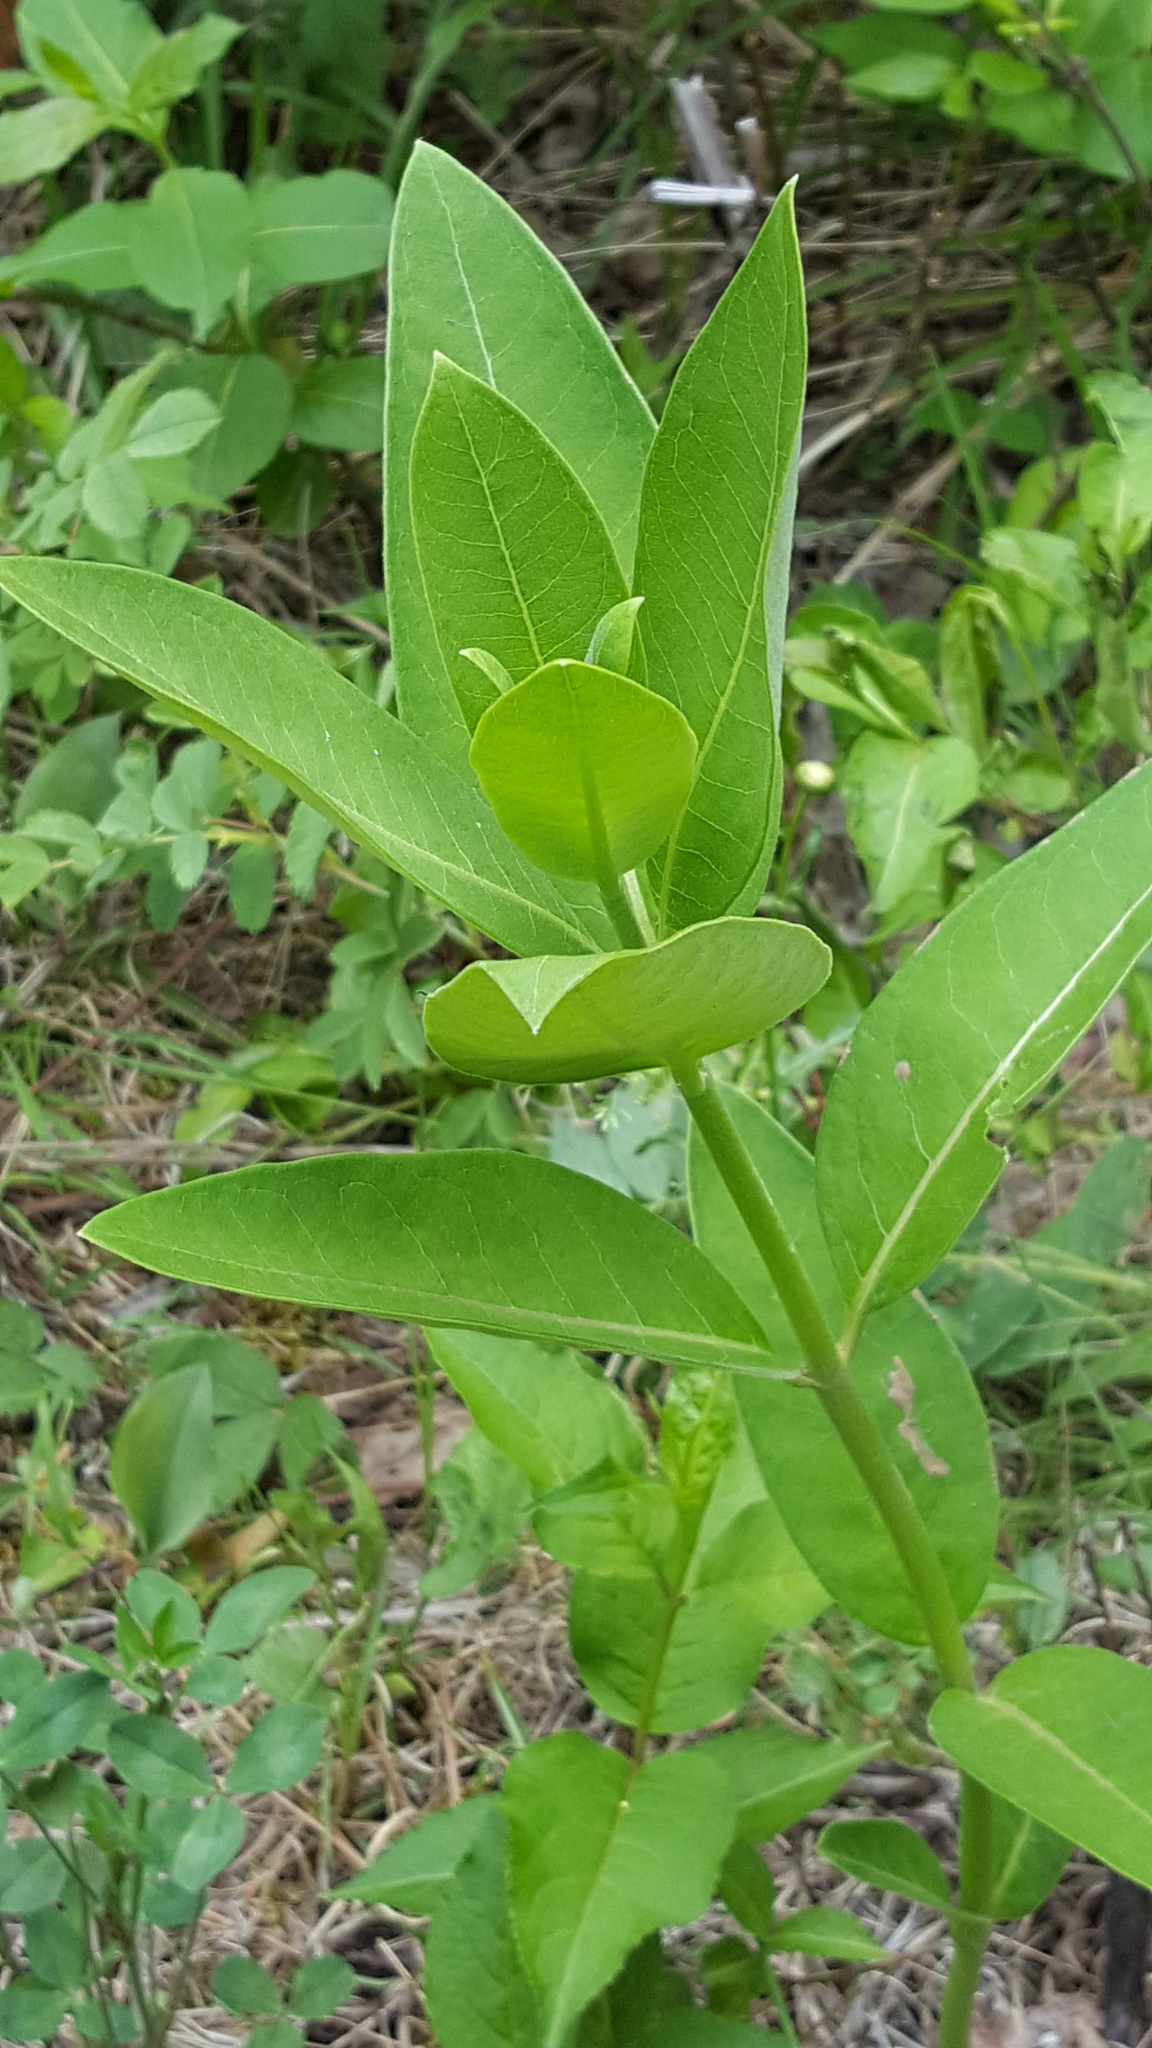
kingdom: Plantae
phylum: Tracheophyta
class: Magnoliopsida
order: Gentianales
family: Apocynaceae
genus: Asclepias
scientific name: Asclepias syriaca
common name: Common milkweed
